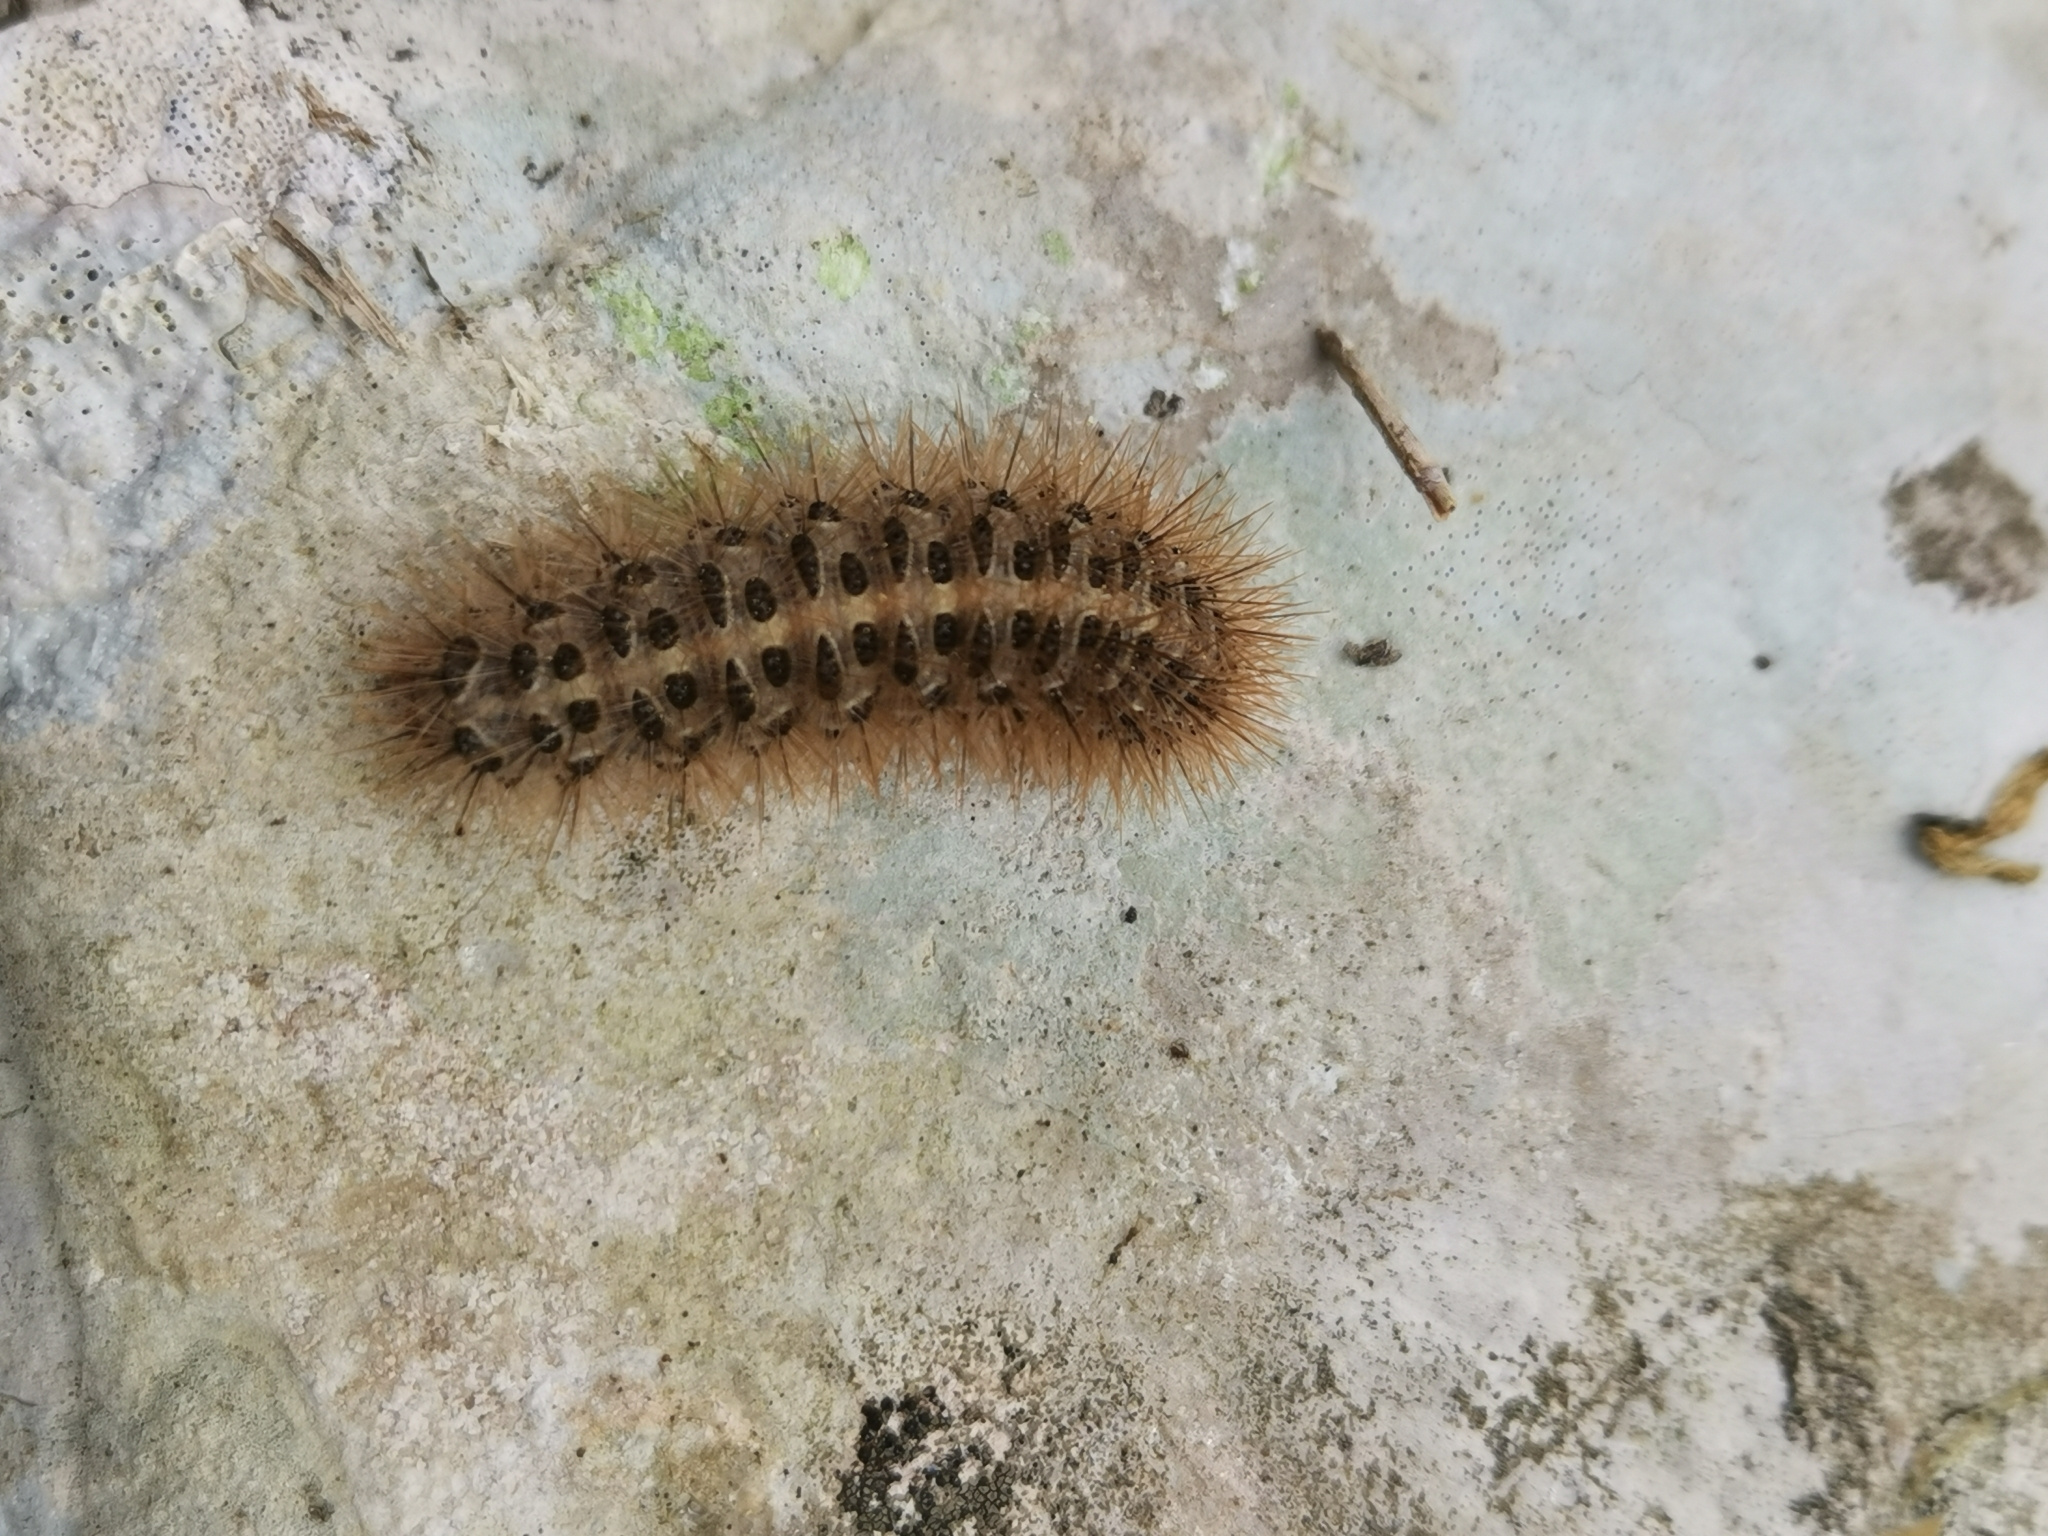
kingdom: Animalia
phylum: Arthropoda
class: Insecta
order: Lepidoptera
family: Erebidae
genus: Cymbalophora
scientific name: Cymbalophora pudica
